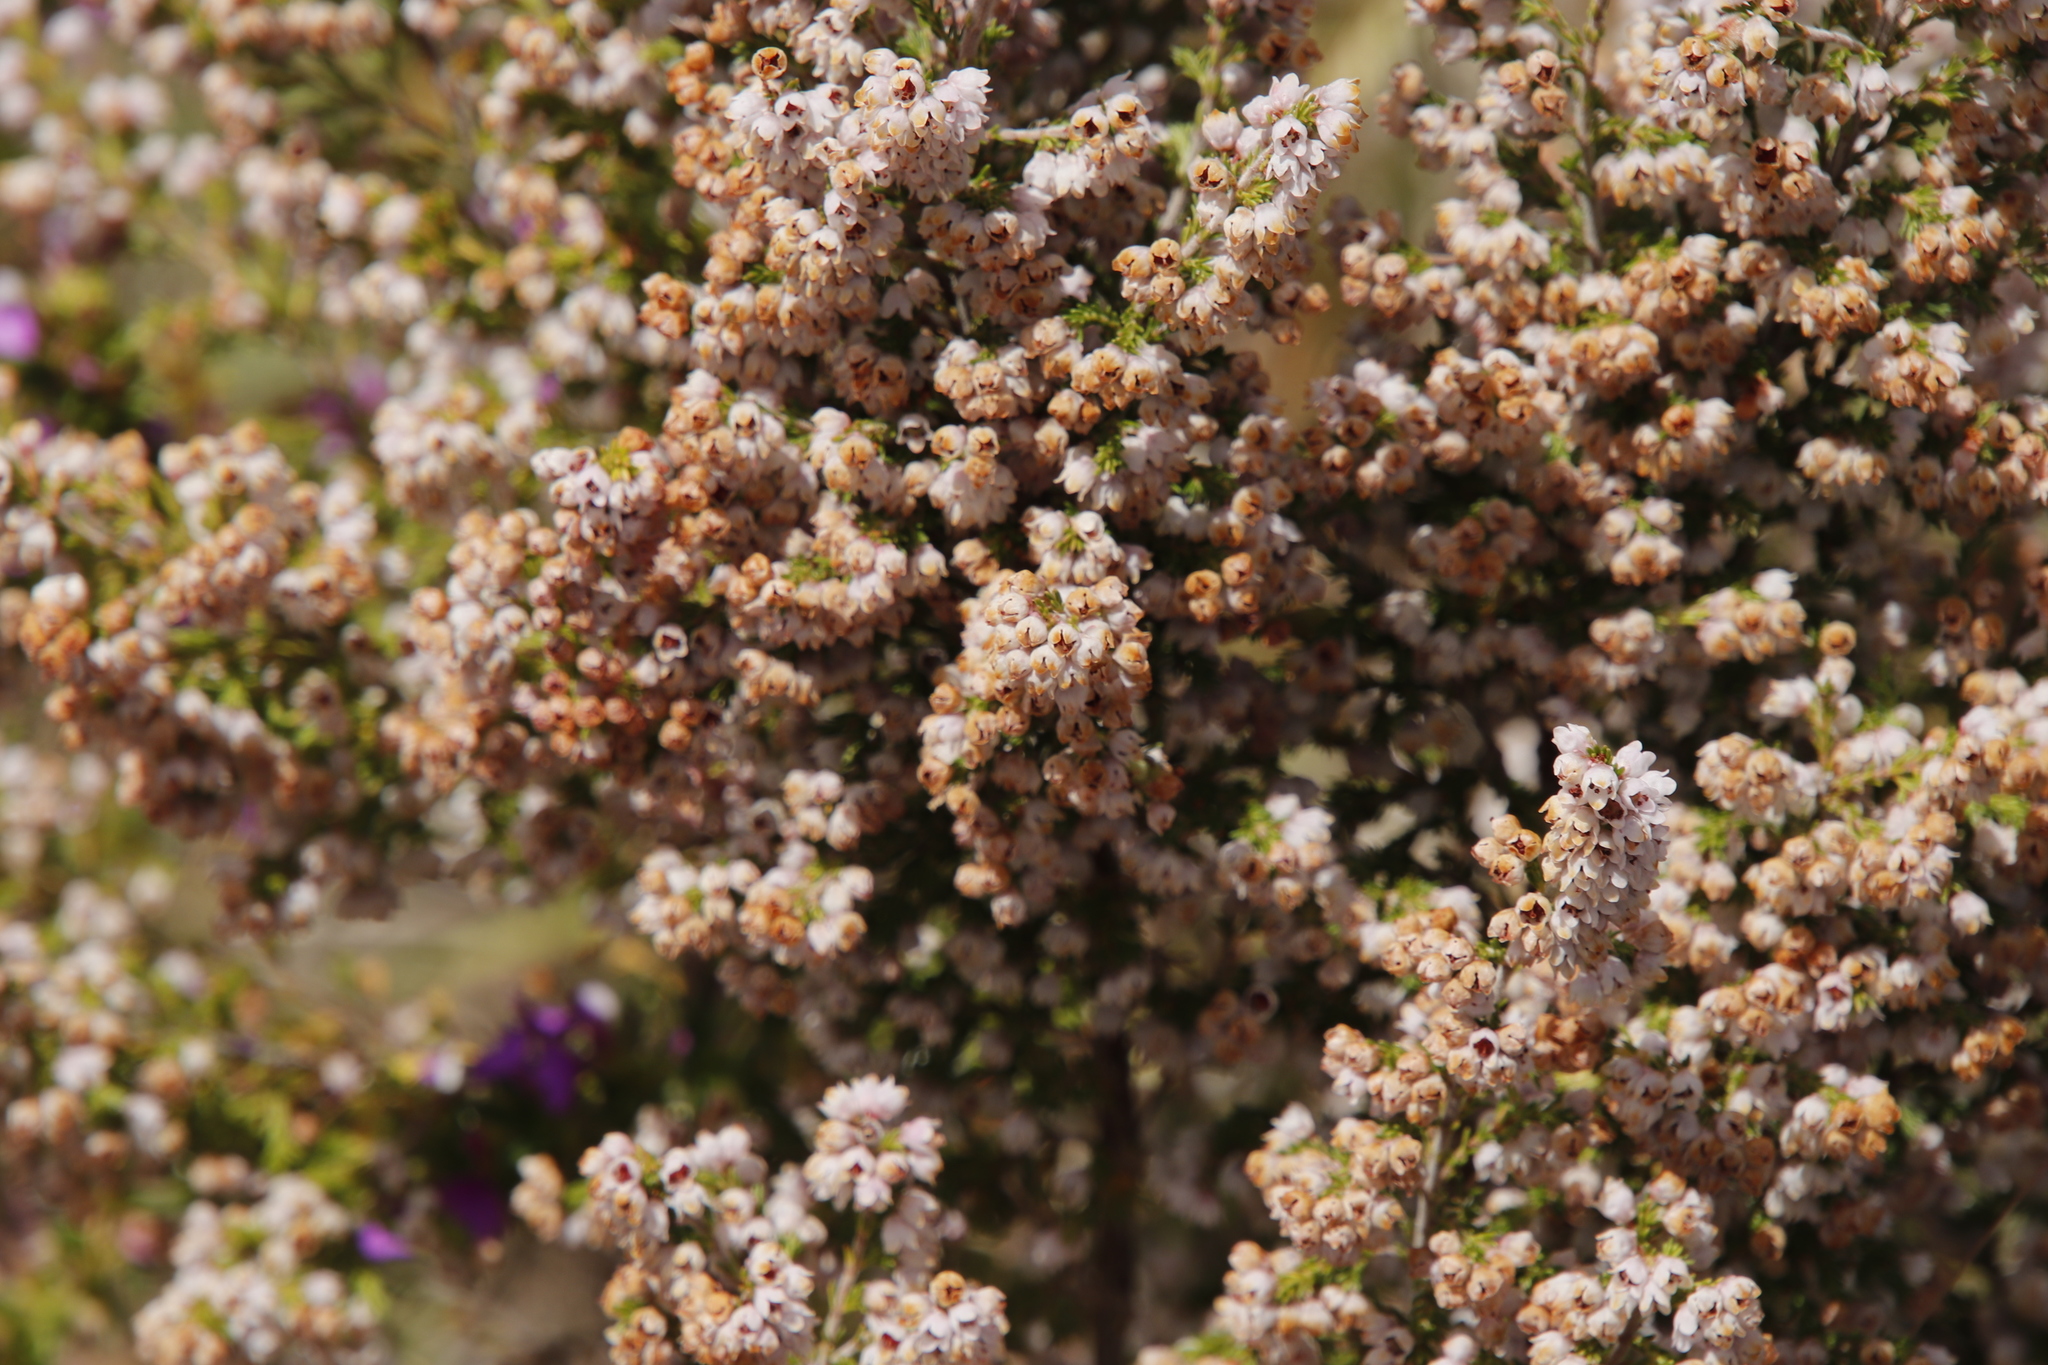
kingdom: Plantae
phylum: Tracheophyta
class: Magnoliopsida
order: Ericales
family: Ericaceae
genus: Erica
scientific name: Erica mauritanica
